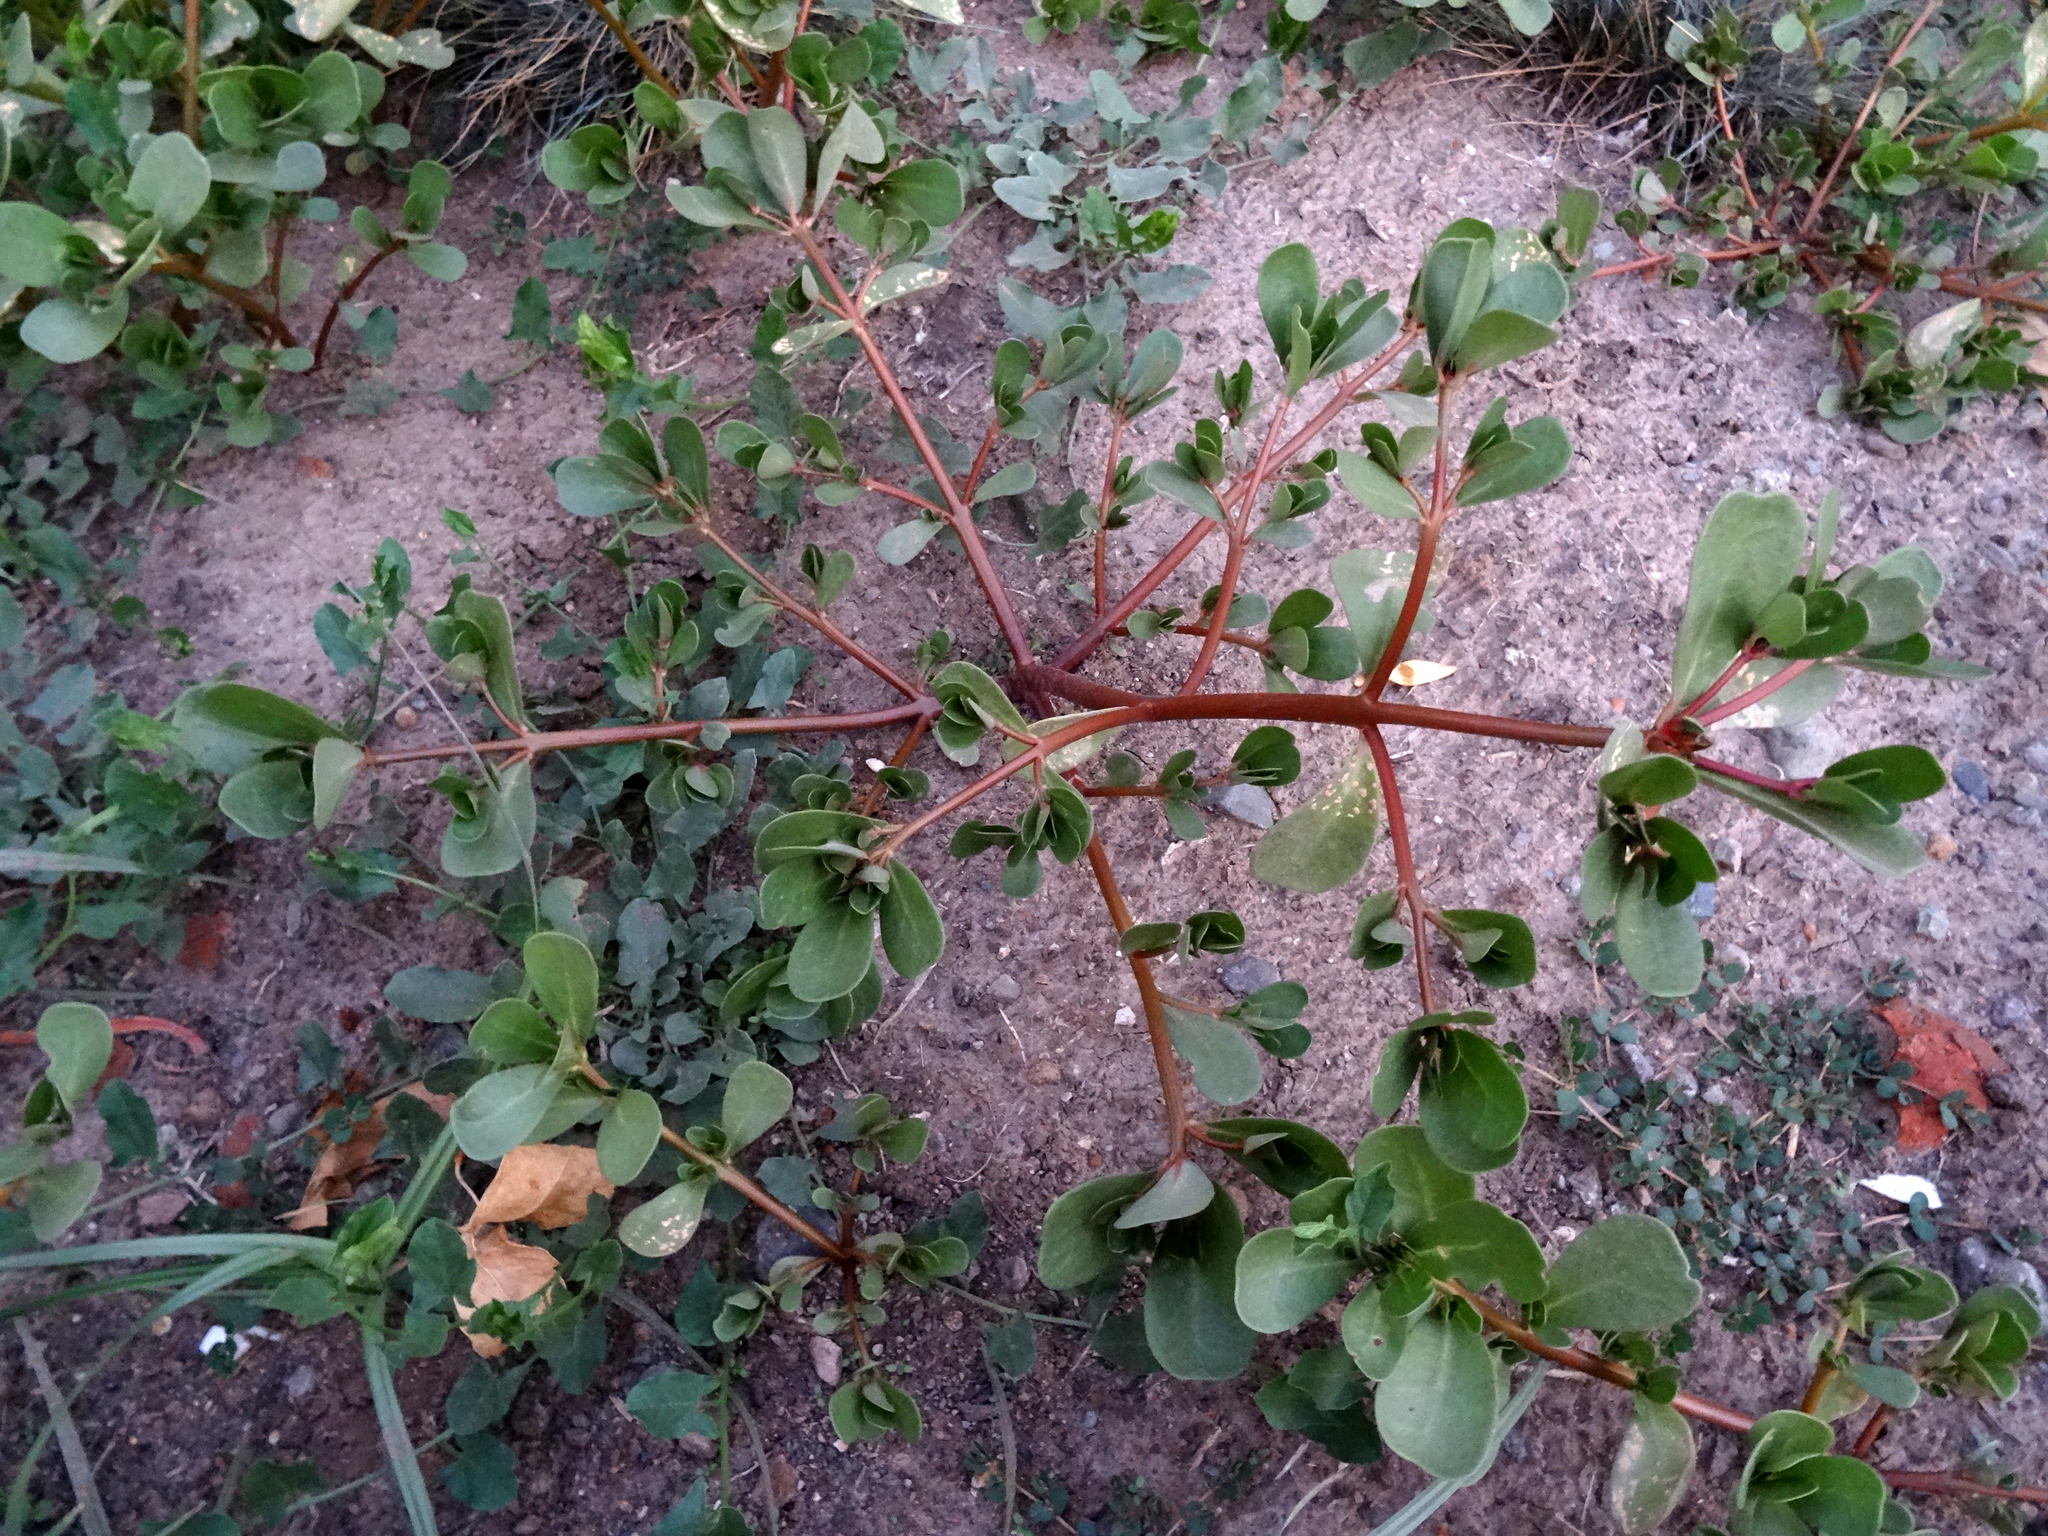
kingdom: Plantae
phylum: Tracheophyta
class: Magnoliopsida
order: Caryophyllales
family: Portulacaceae
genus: Portulaca
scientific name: Portulaca oleracea
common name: Common purslane
